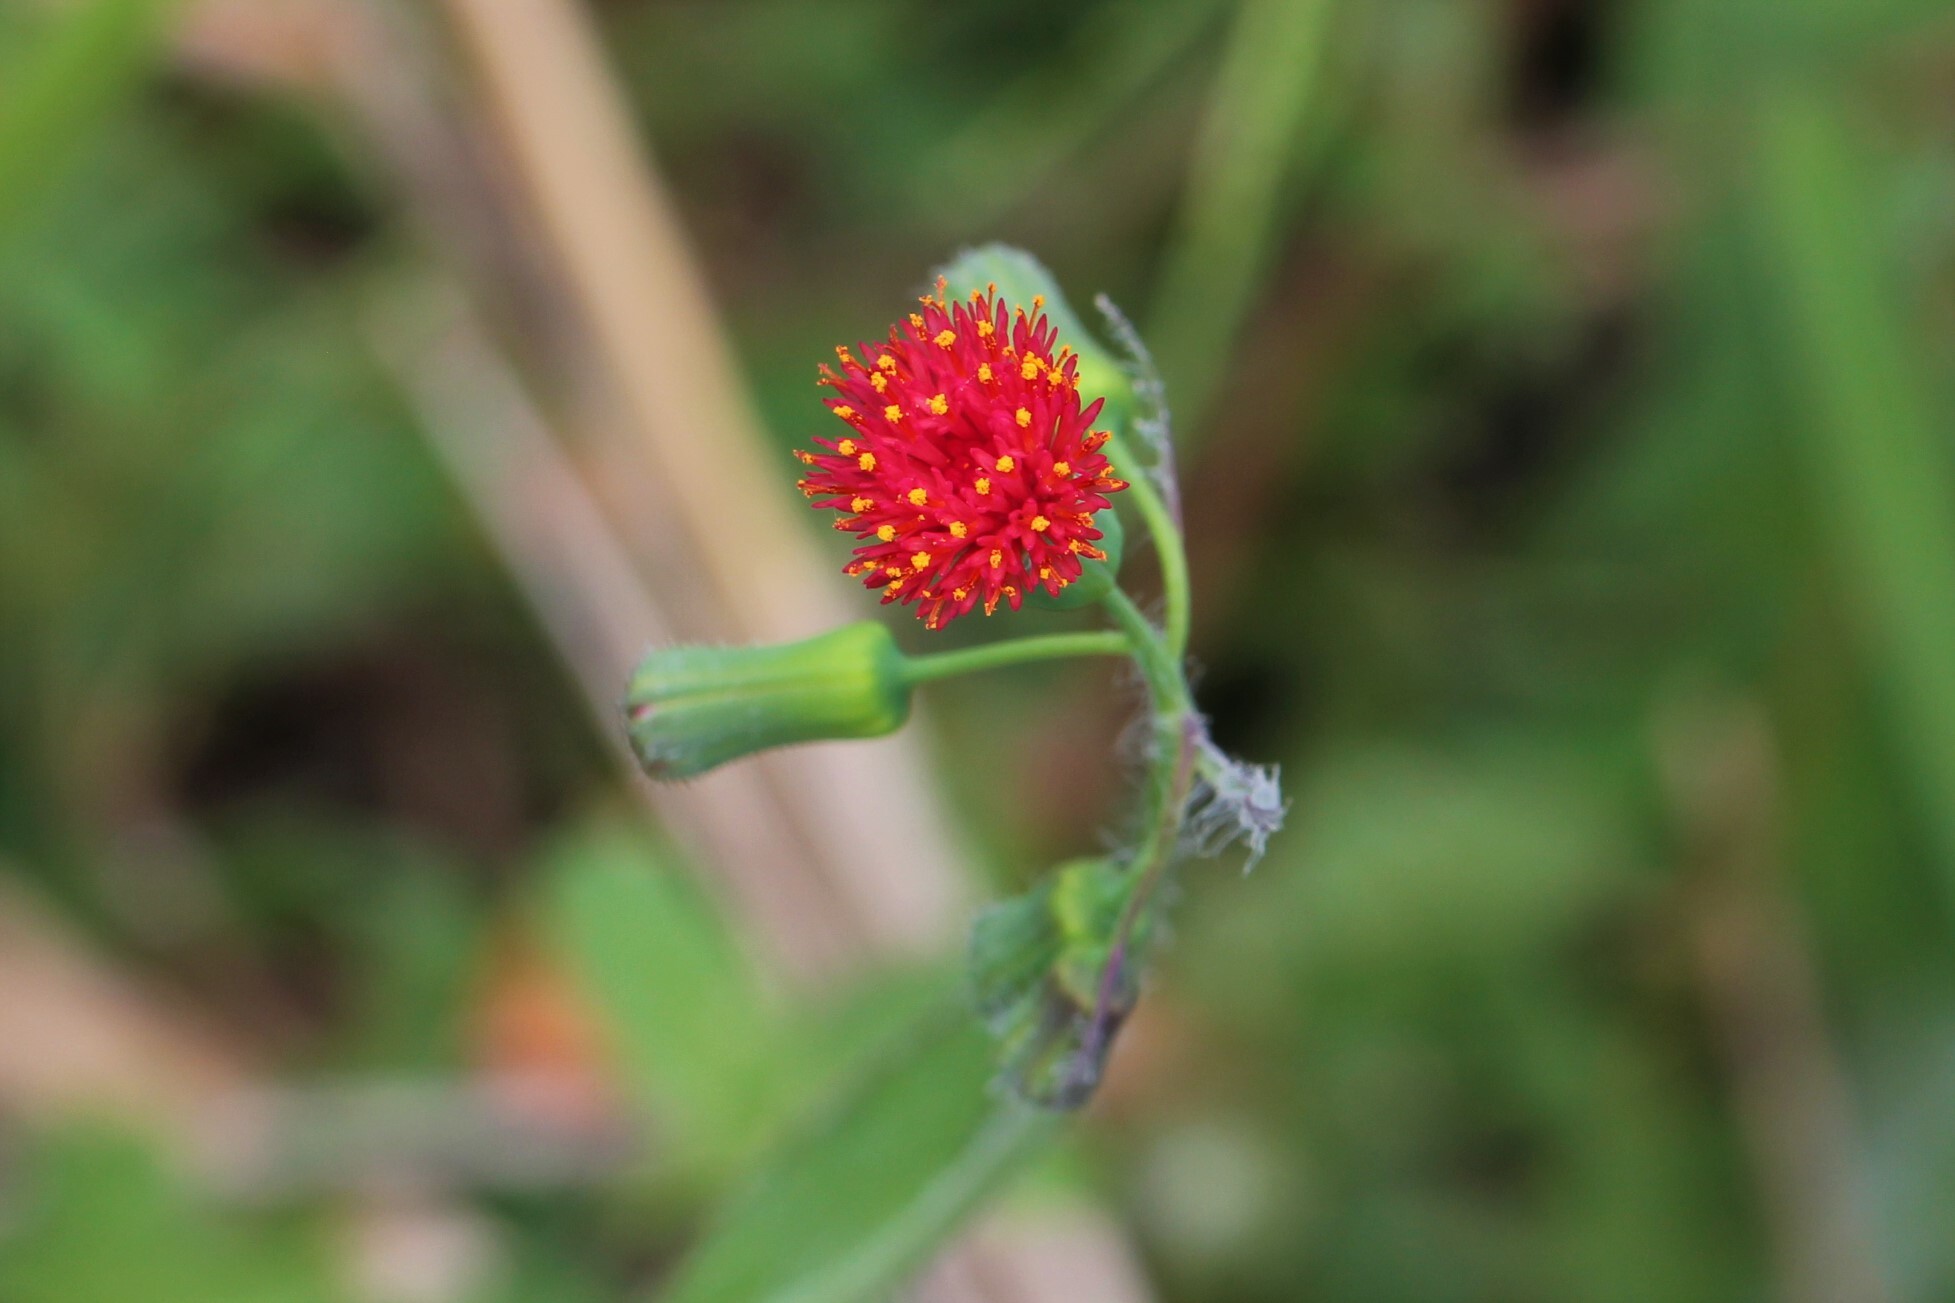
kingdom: Plantae
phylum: Tracheophyta
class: Magnoliopsida
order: Asterales
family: Asteraceae
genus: Emilia
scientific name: Emilia fosbergii
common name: Florida tasselflower
